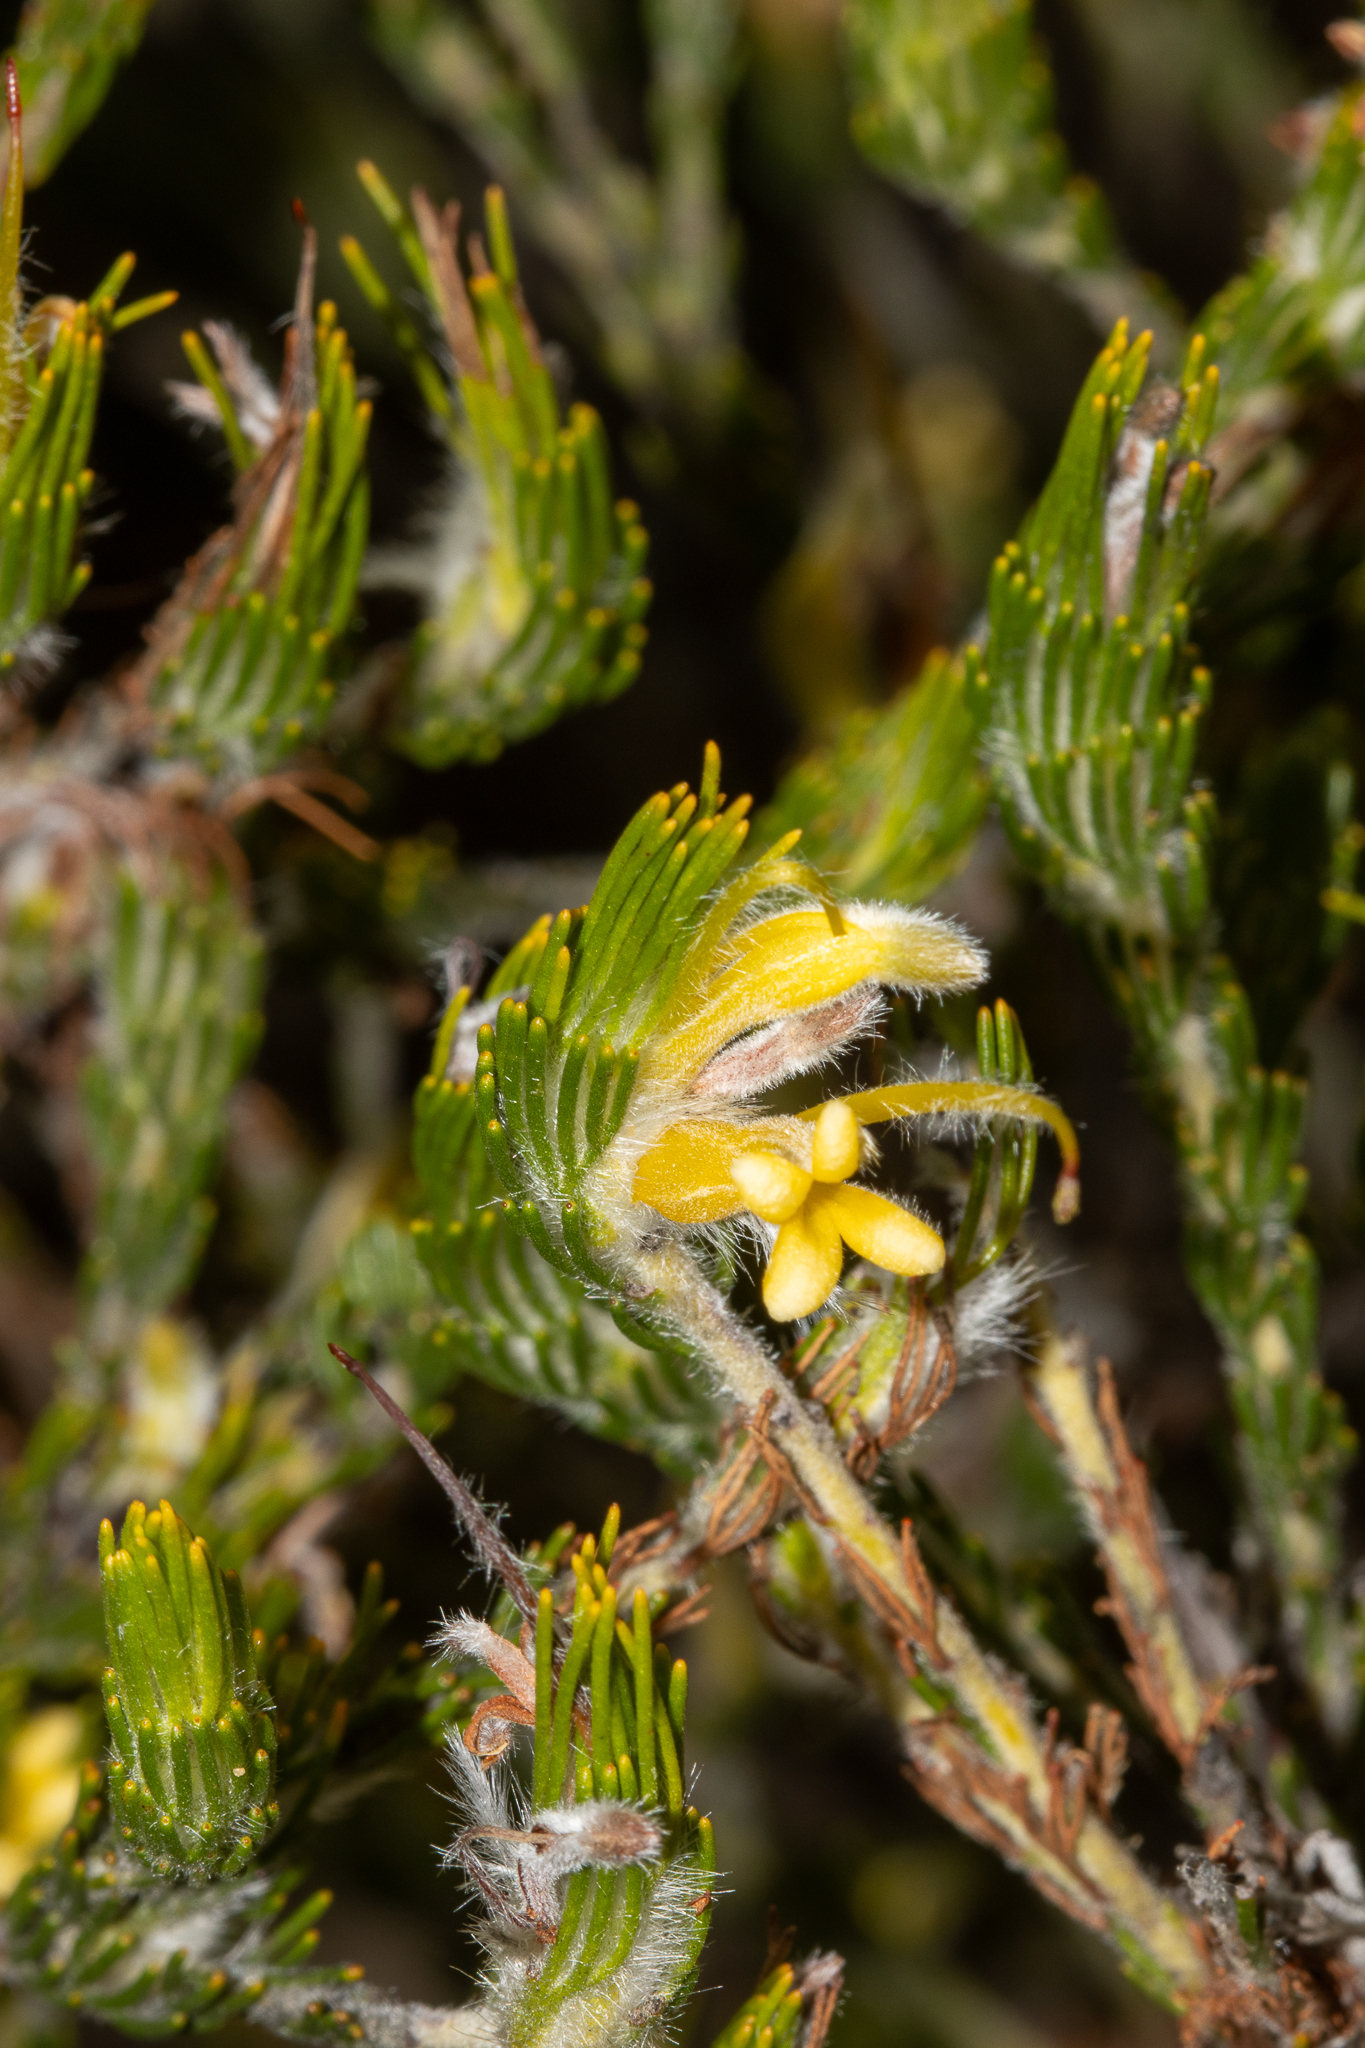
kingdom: Plantae
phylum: Tracheophyta
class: Magnoliopsida
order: Proteales
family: Proteaceae
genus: Adenanthos
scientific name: Adenanthos terminalis
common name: Yellow gland-flower
